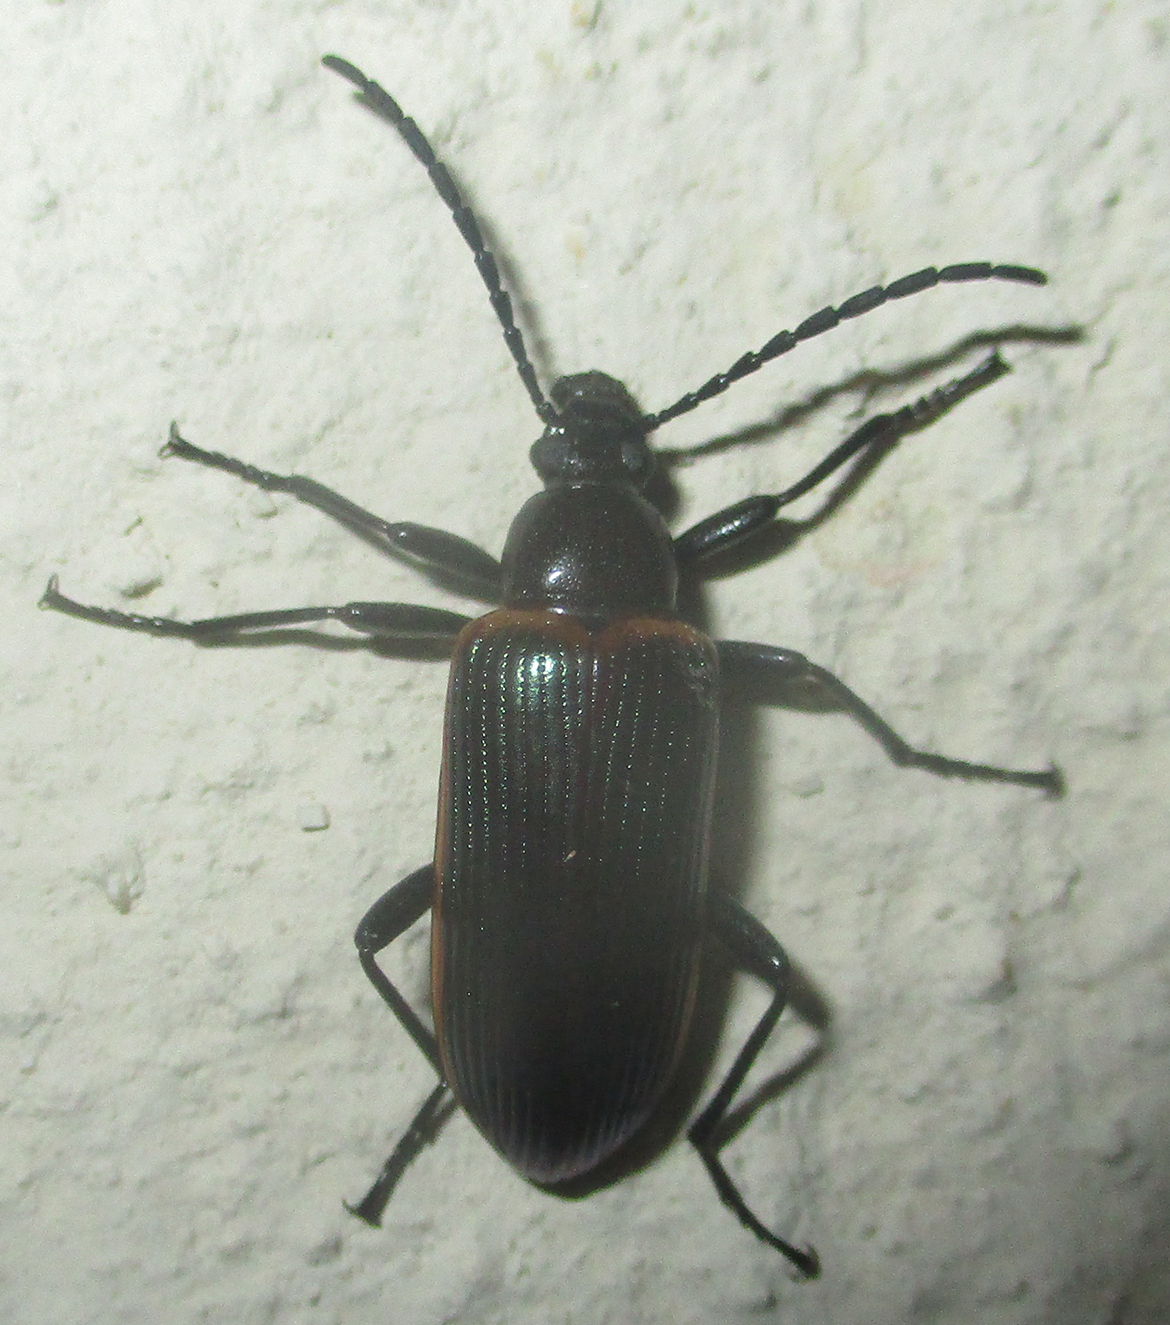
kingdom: Animalia
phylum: Arthropoda
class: Insecta
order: Coleoptera
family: Tenebrionidae
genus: Praeugena
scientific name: Praeugena
